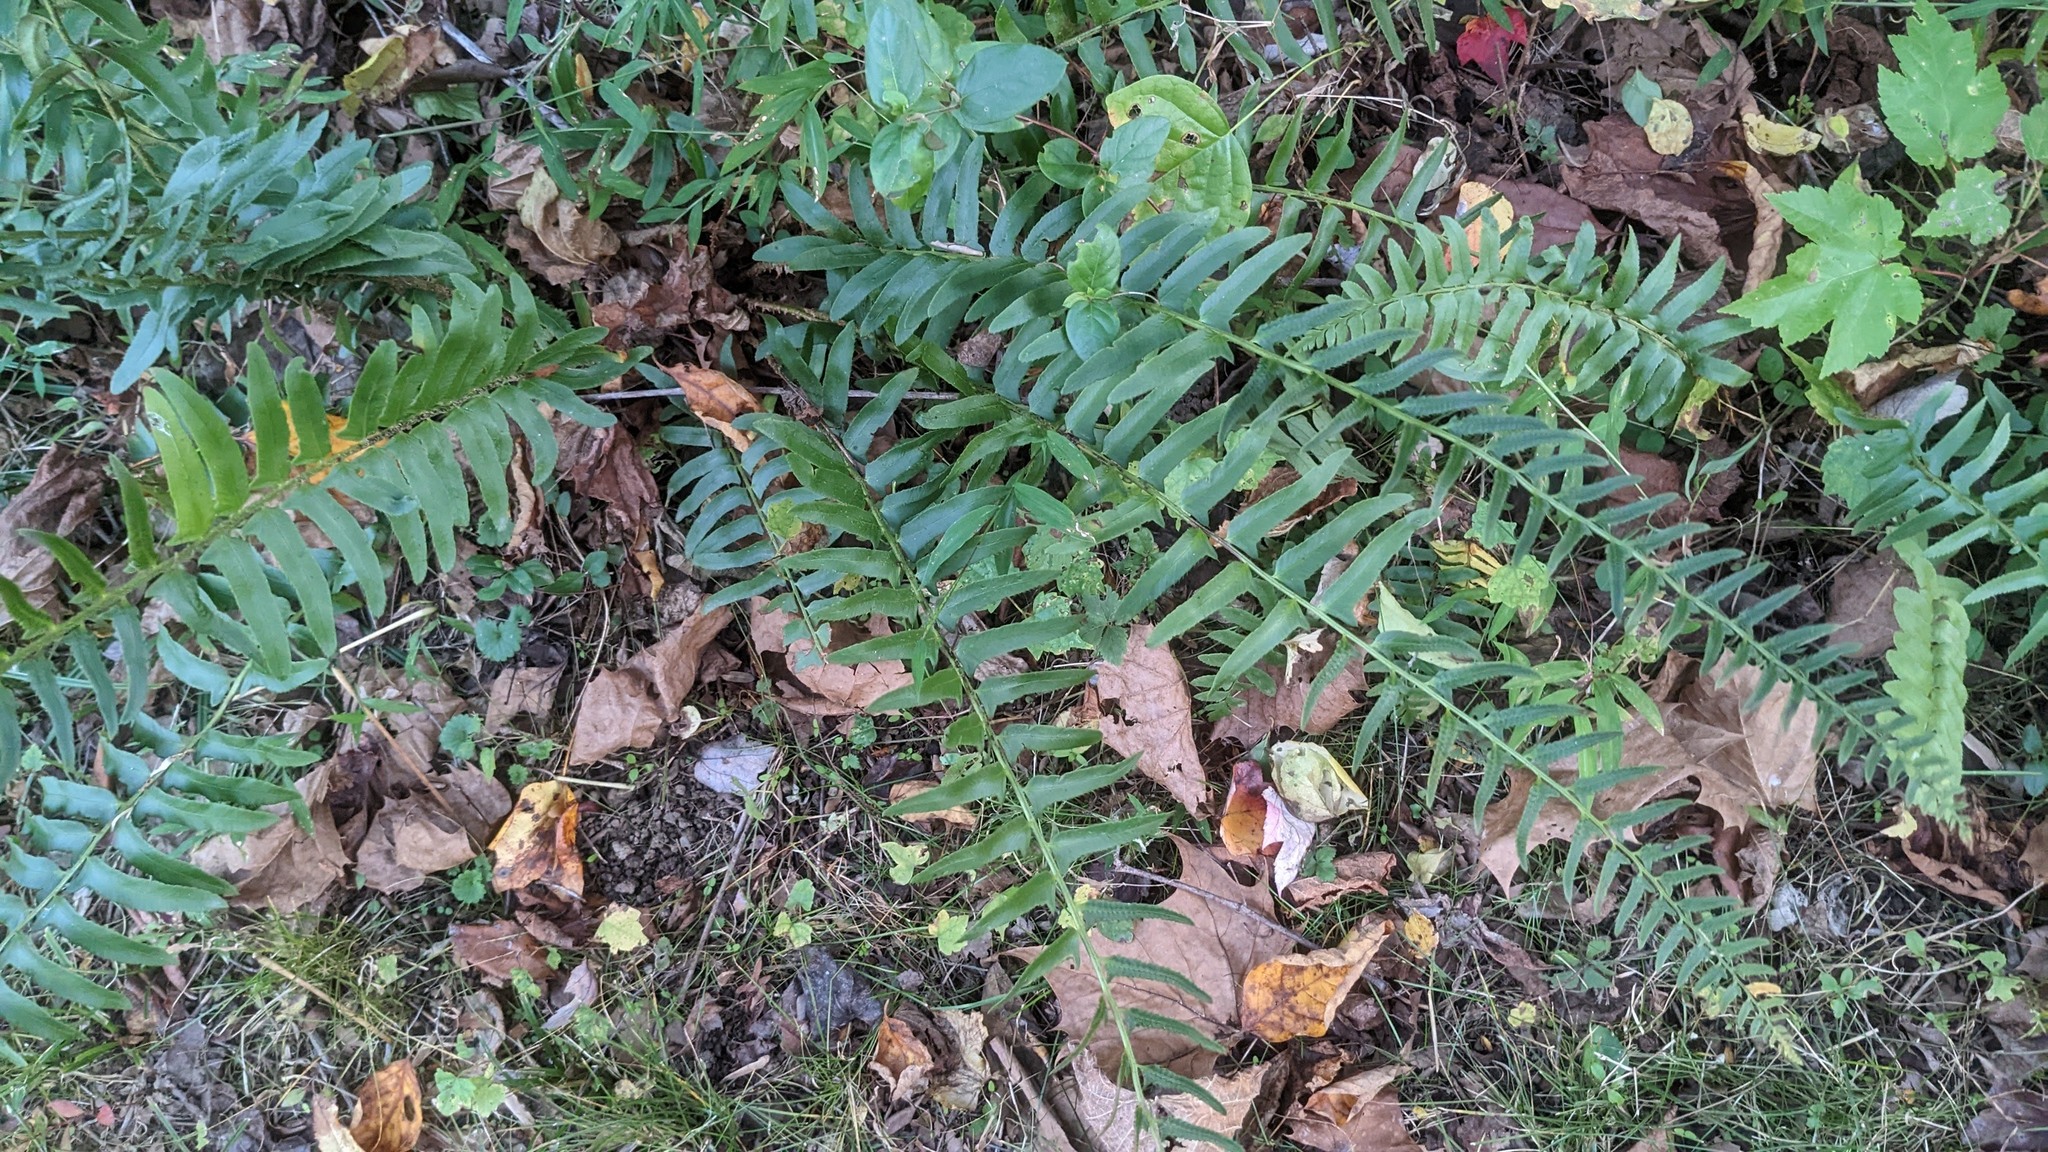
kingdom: Plantae
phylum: Tracheophyta
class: Polypodiopsida
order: Polypodiales
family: Dryopteridaceae
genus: Polystichum
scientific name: Polystichum acrostichoides
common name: Christmas fern
